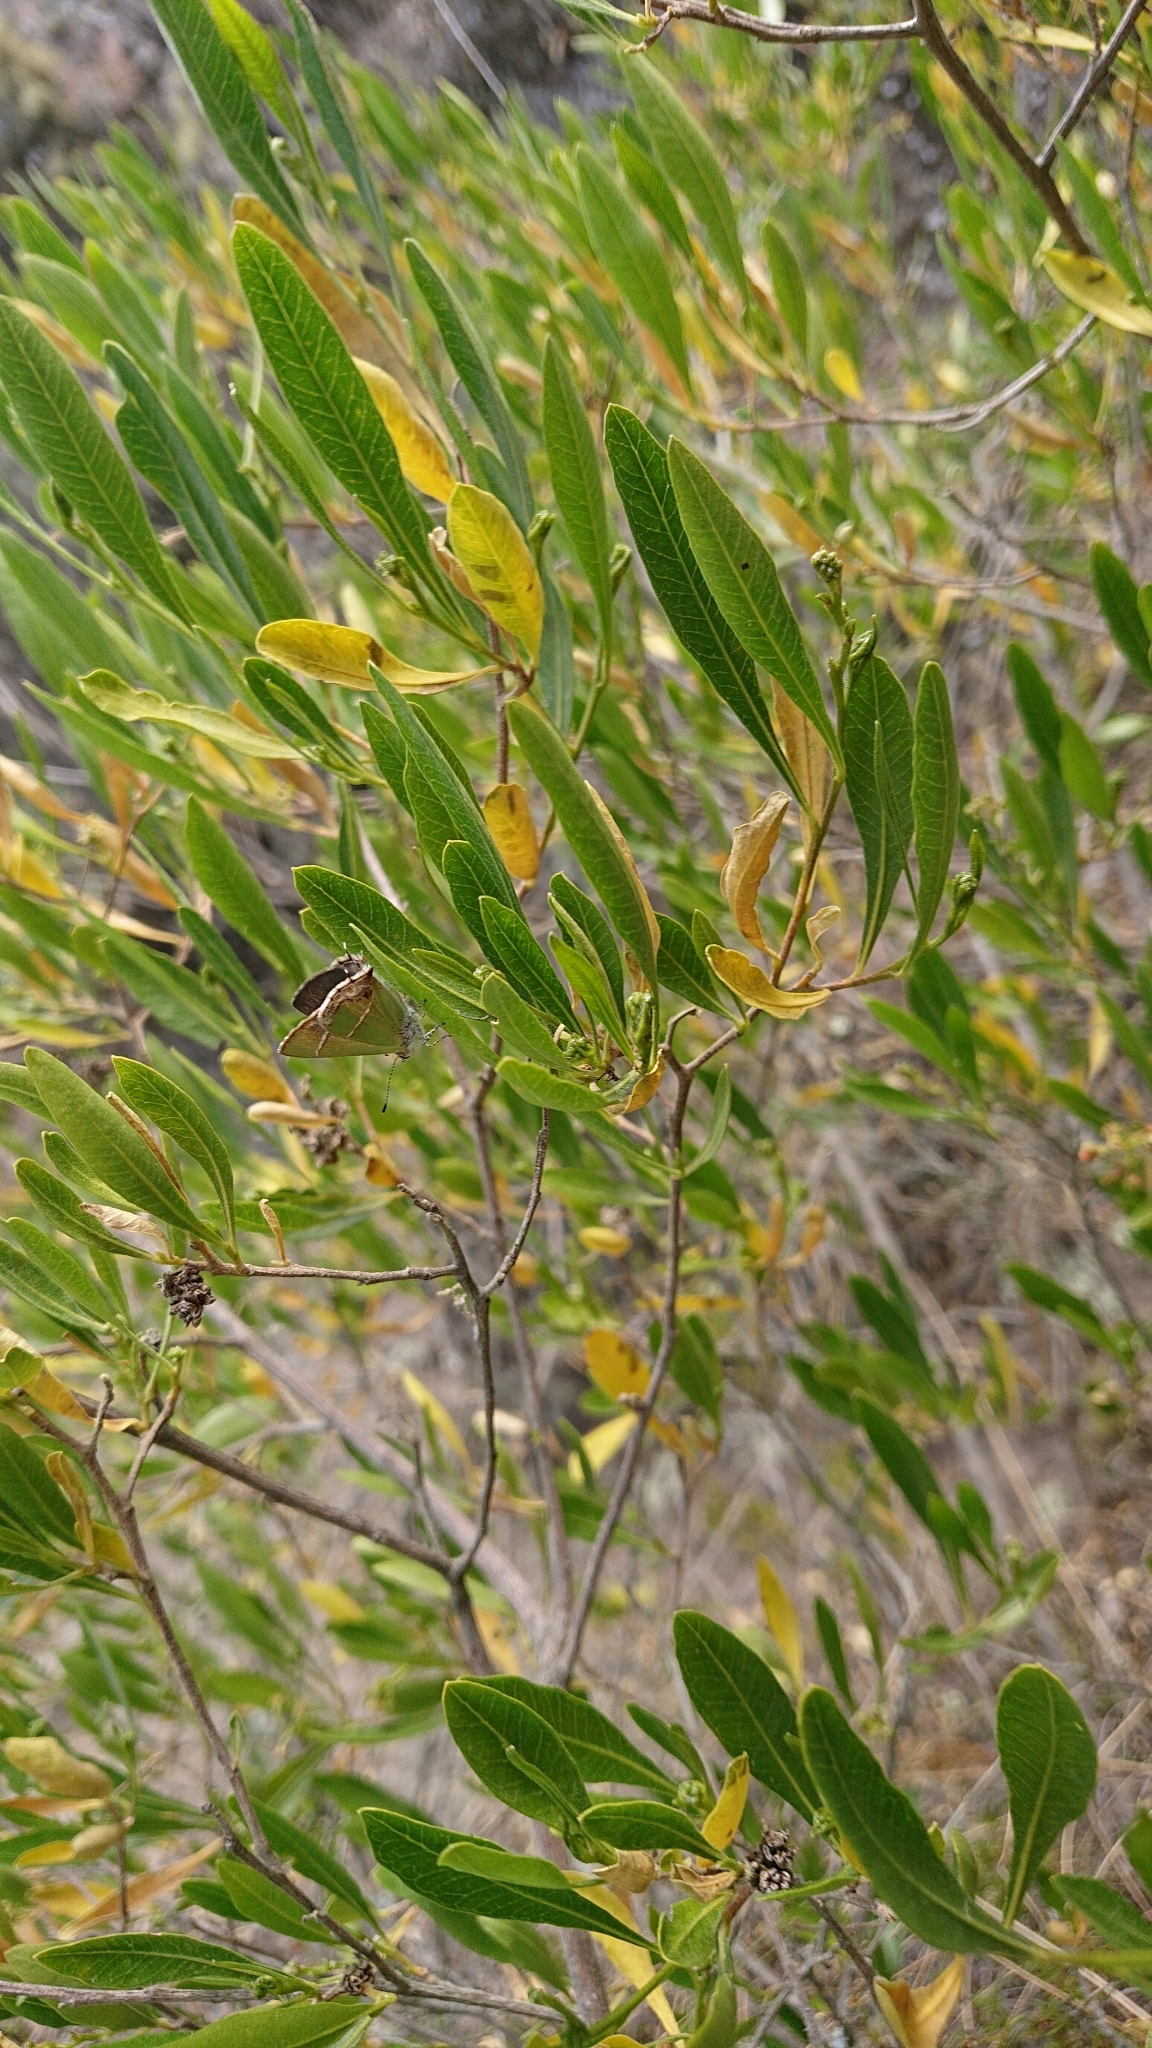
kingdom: Animalia
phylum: Arthropoda
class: Insecta
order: Lepidoptera
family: Lycaenidae
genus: Chlorostrymon
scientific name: Chlorostrymon simaethis
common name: Silver-banded hairstreak
